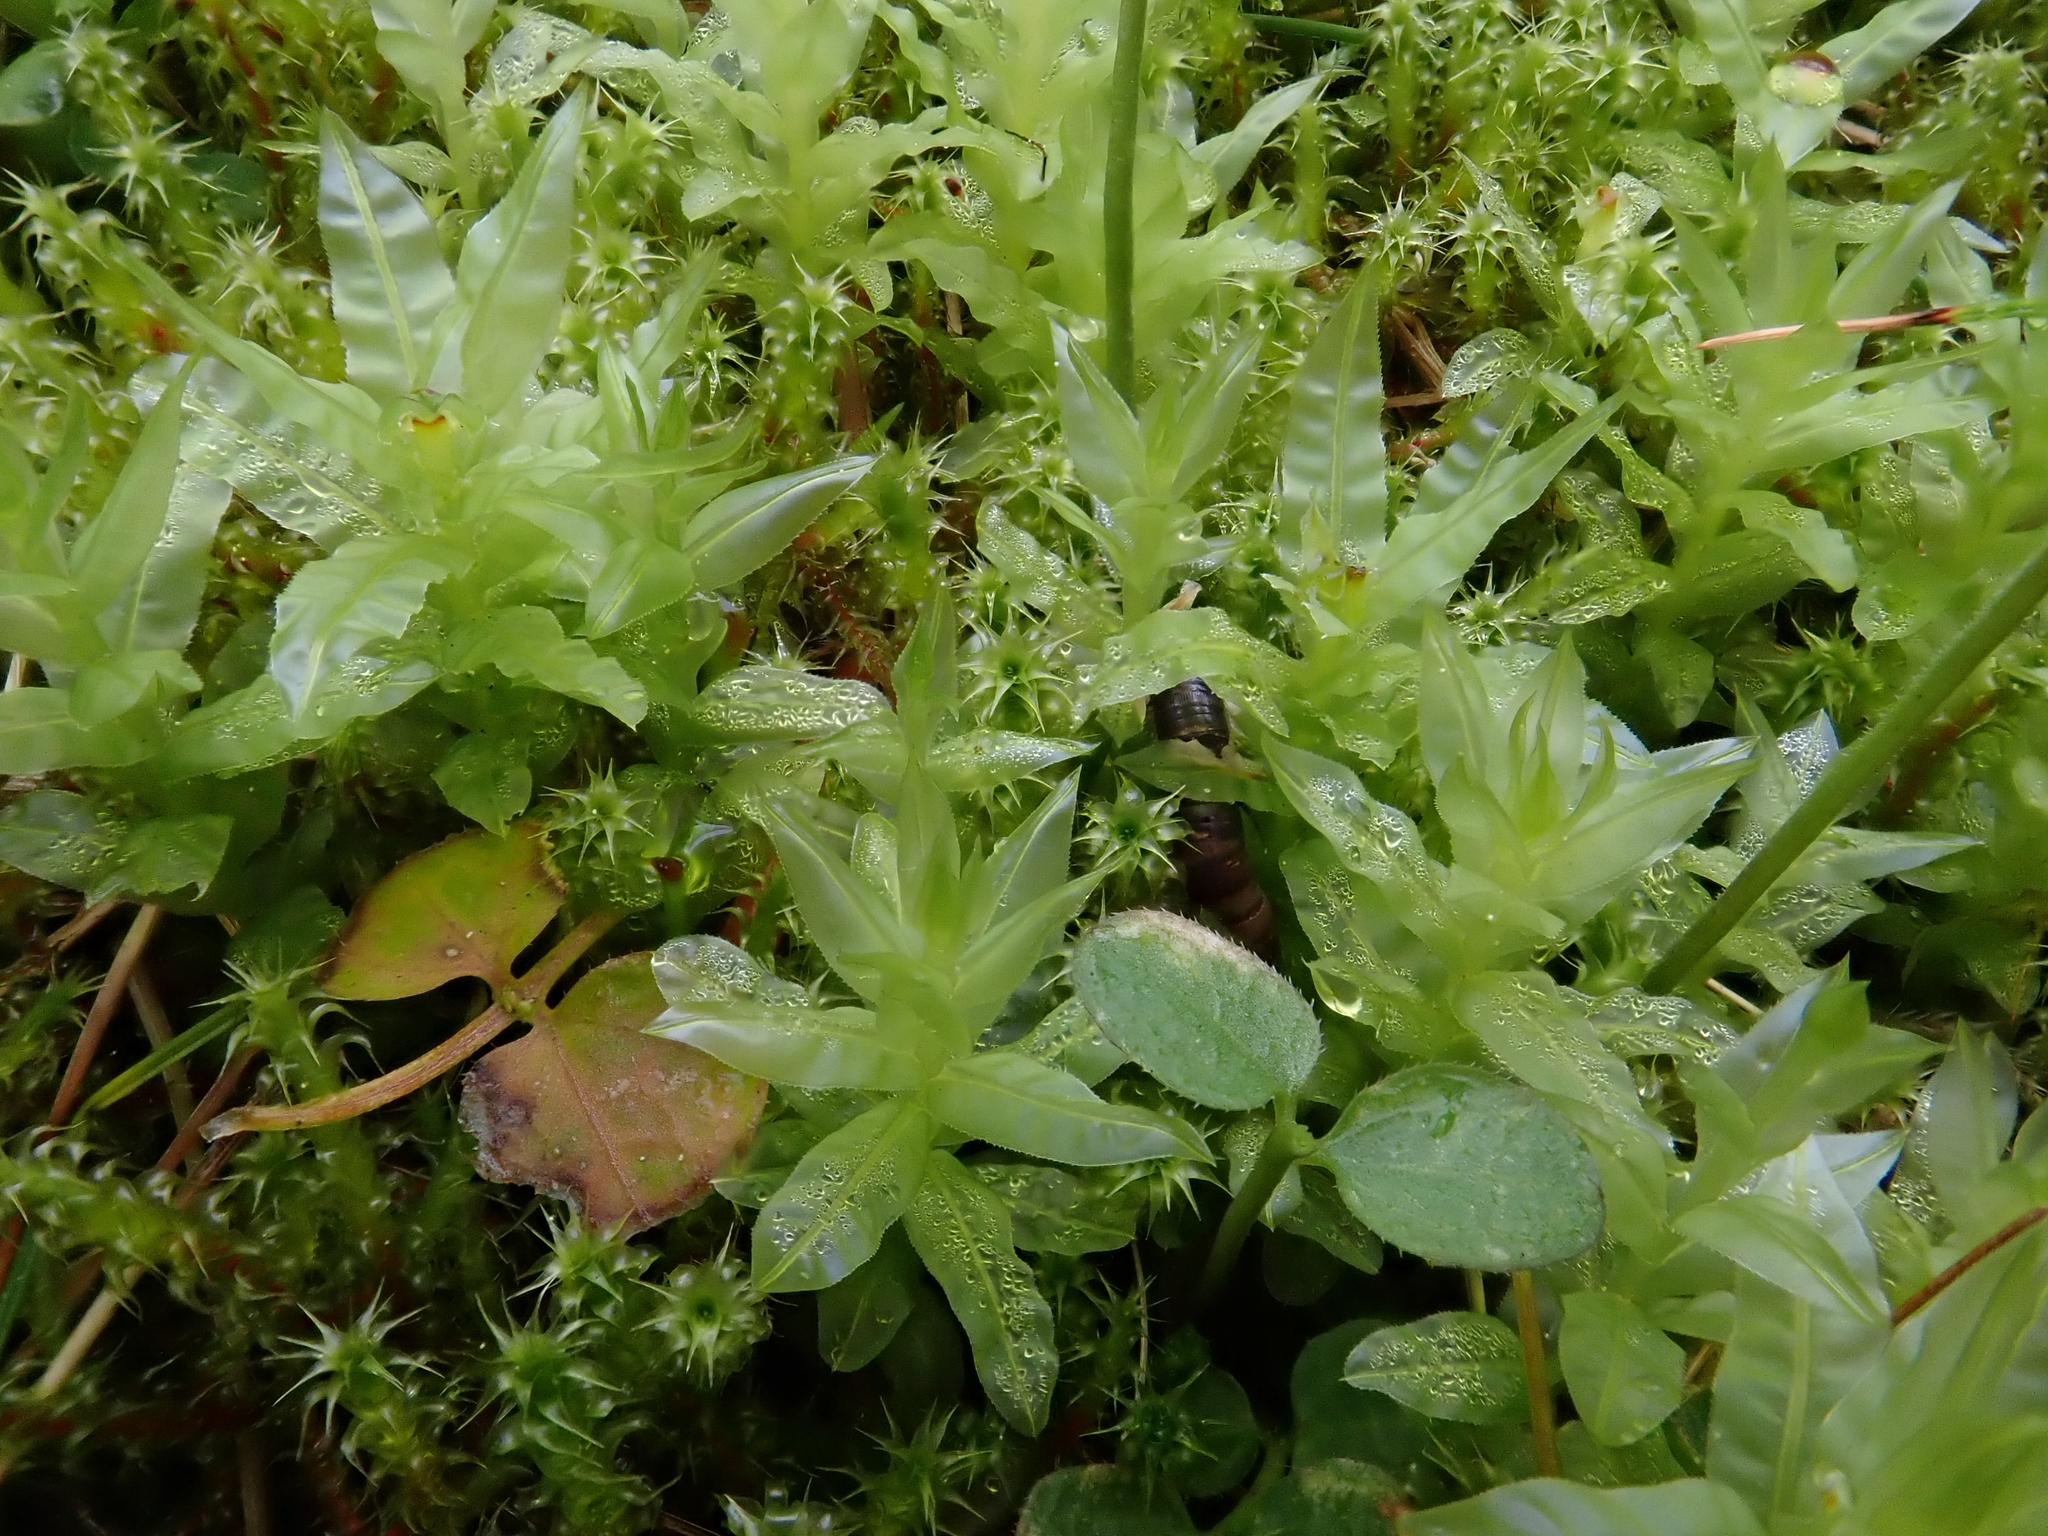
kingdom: Plantae
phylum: Bryophyta
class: Bryopsida
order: Bryales
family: Mniaceae
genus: Plagiomnium
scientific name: Plagiomnium undulatum
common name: Hart's-tongue thyme-moss
